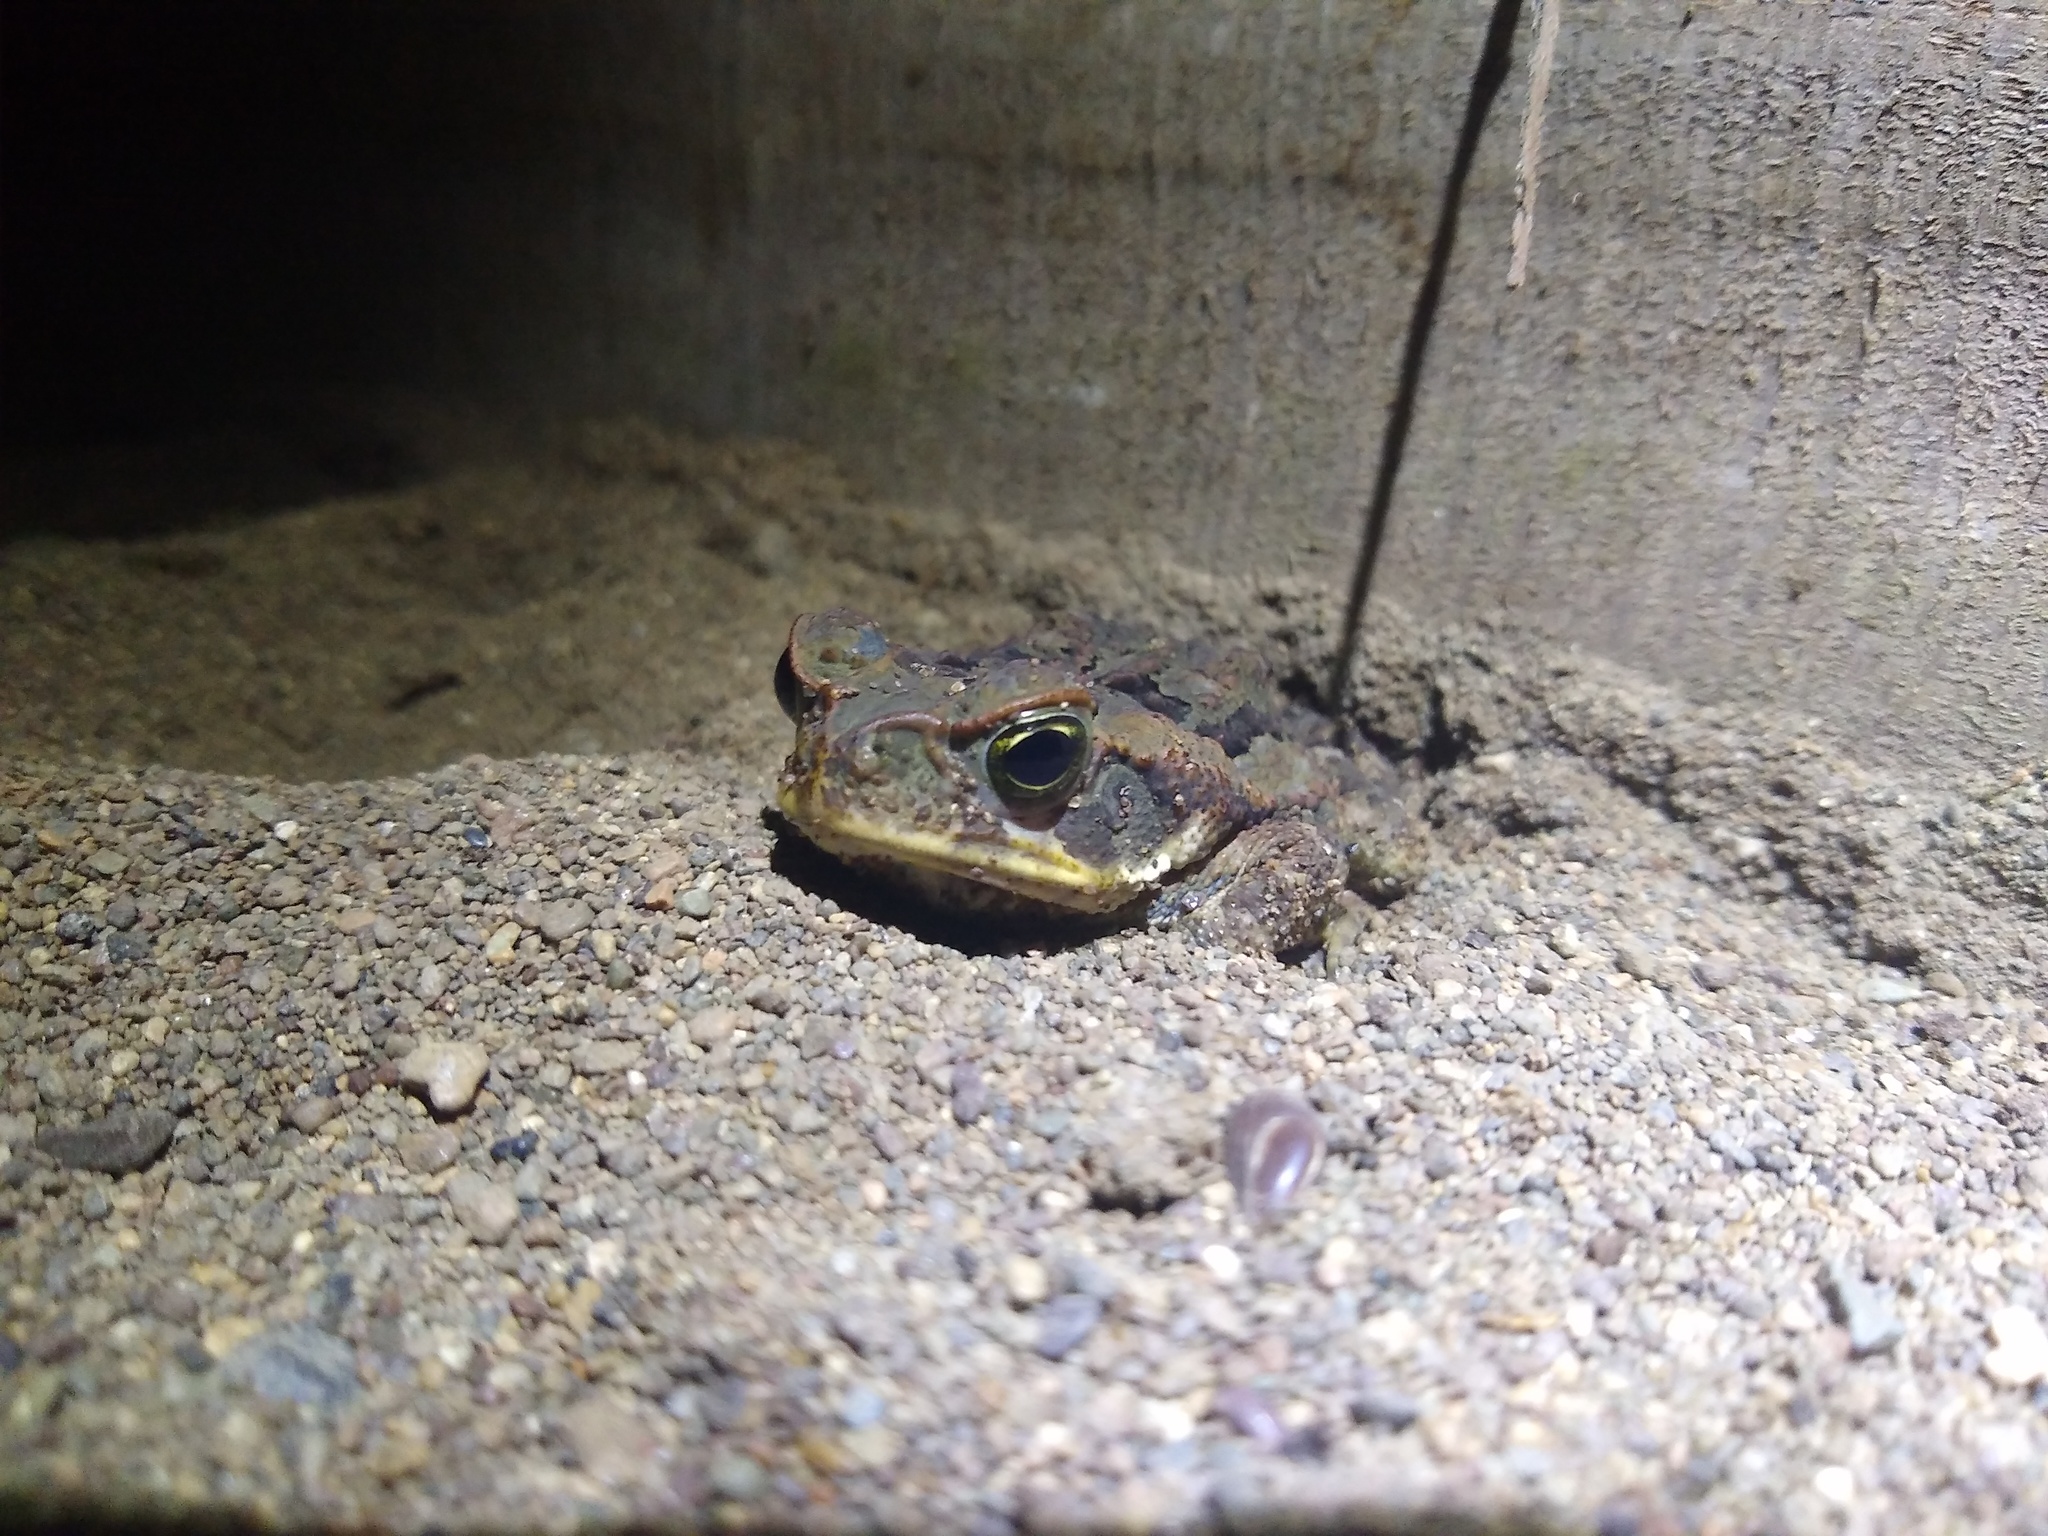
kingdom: Animalia
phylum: Chordata
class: Amphibia
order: Anura
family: Bufonidae
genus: Rhinella
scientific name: Rhinella horribilis
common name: Mesoamerican cane toad
